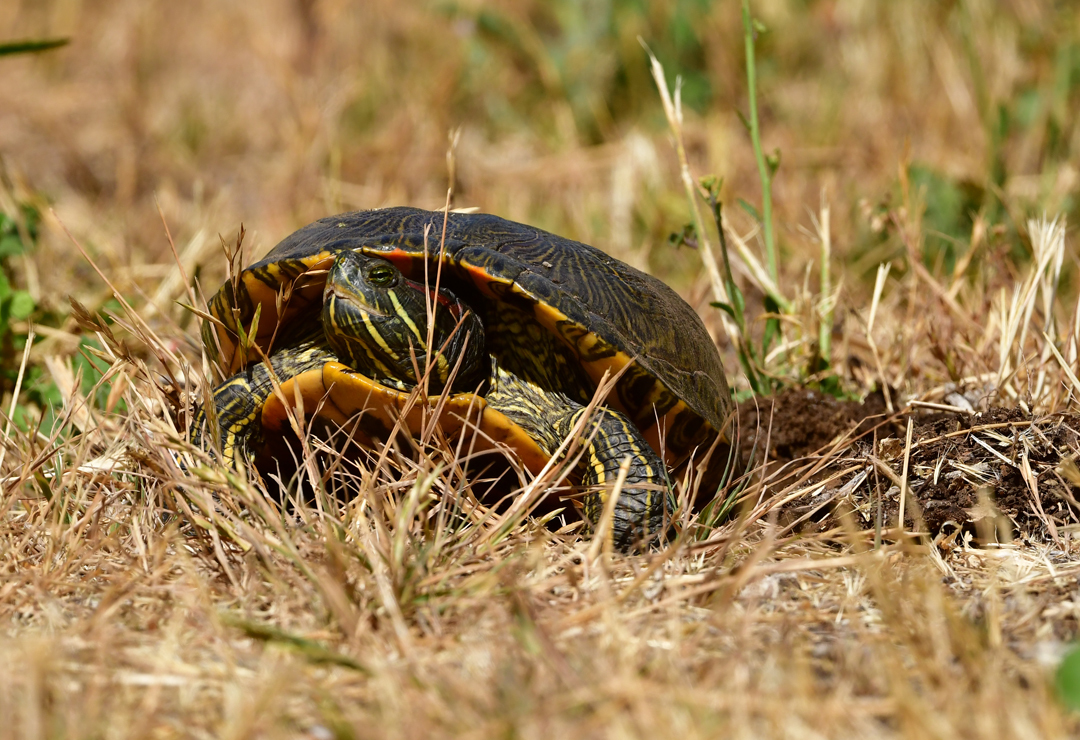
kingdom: Animalia
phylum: Chordata
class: Testudines
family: Emydidae
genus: Trachemys
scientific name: Trachemys scripta
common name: Slider
